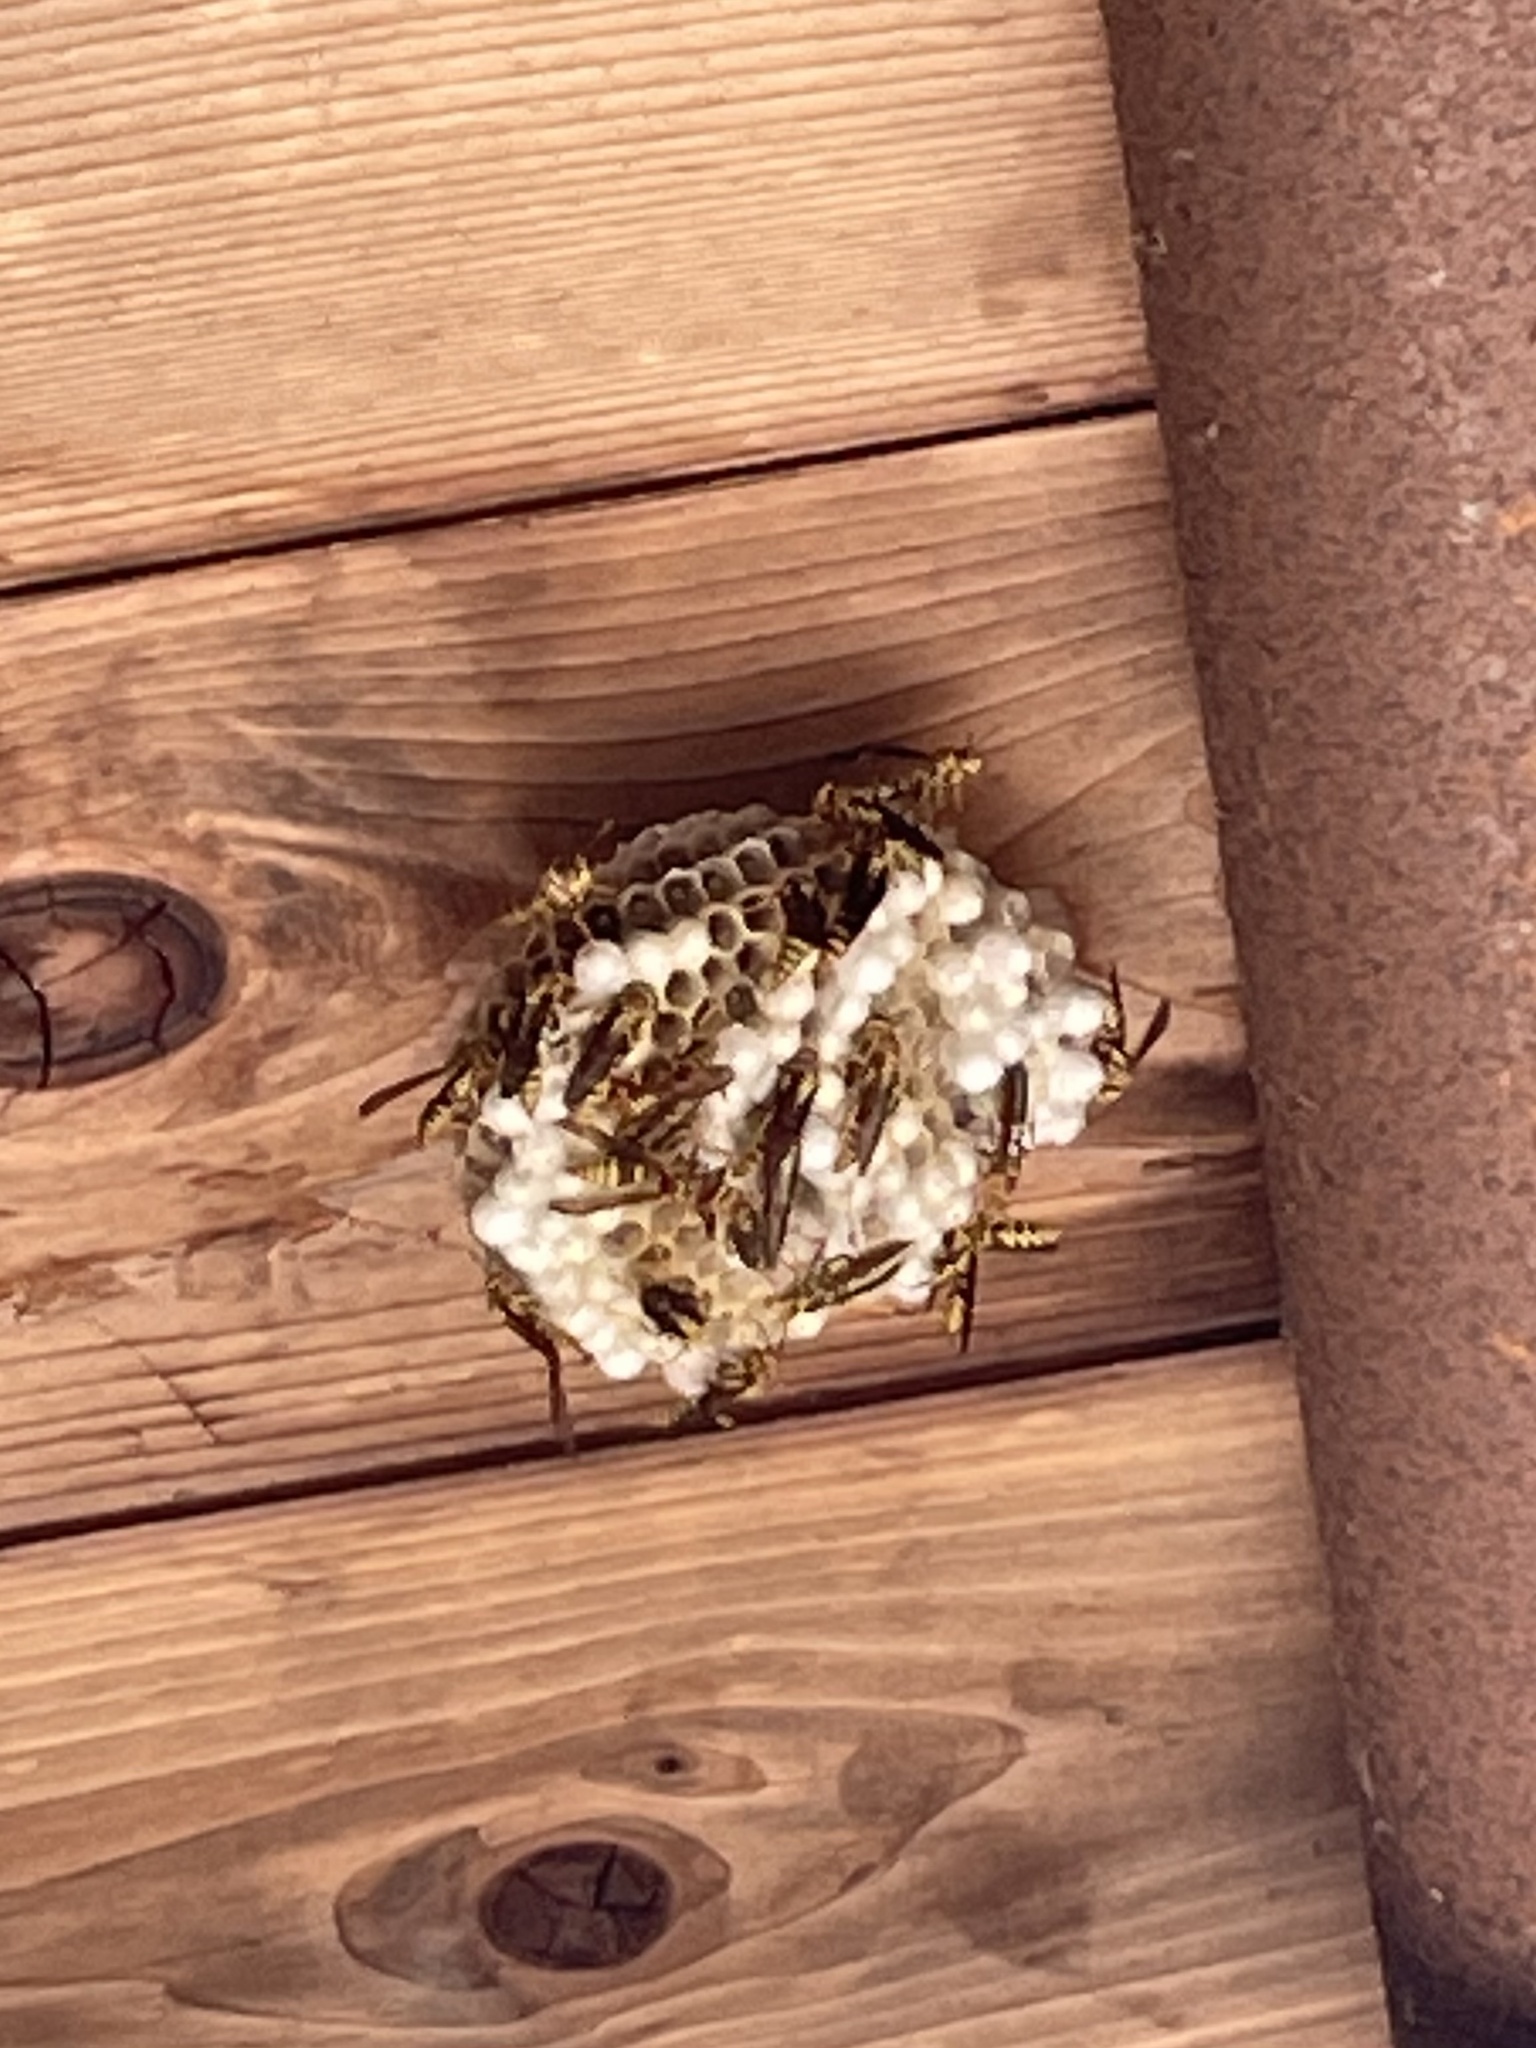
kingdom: Animalia
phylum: Arthropoda
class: Insecta
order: Hymenoptera
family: Eumenidae
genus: Polistes
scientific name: Polistes exclamans
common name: Paper wasp
